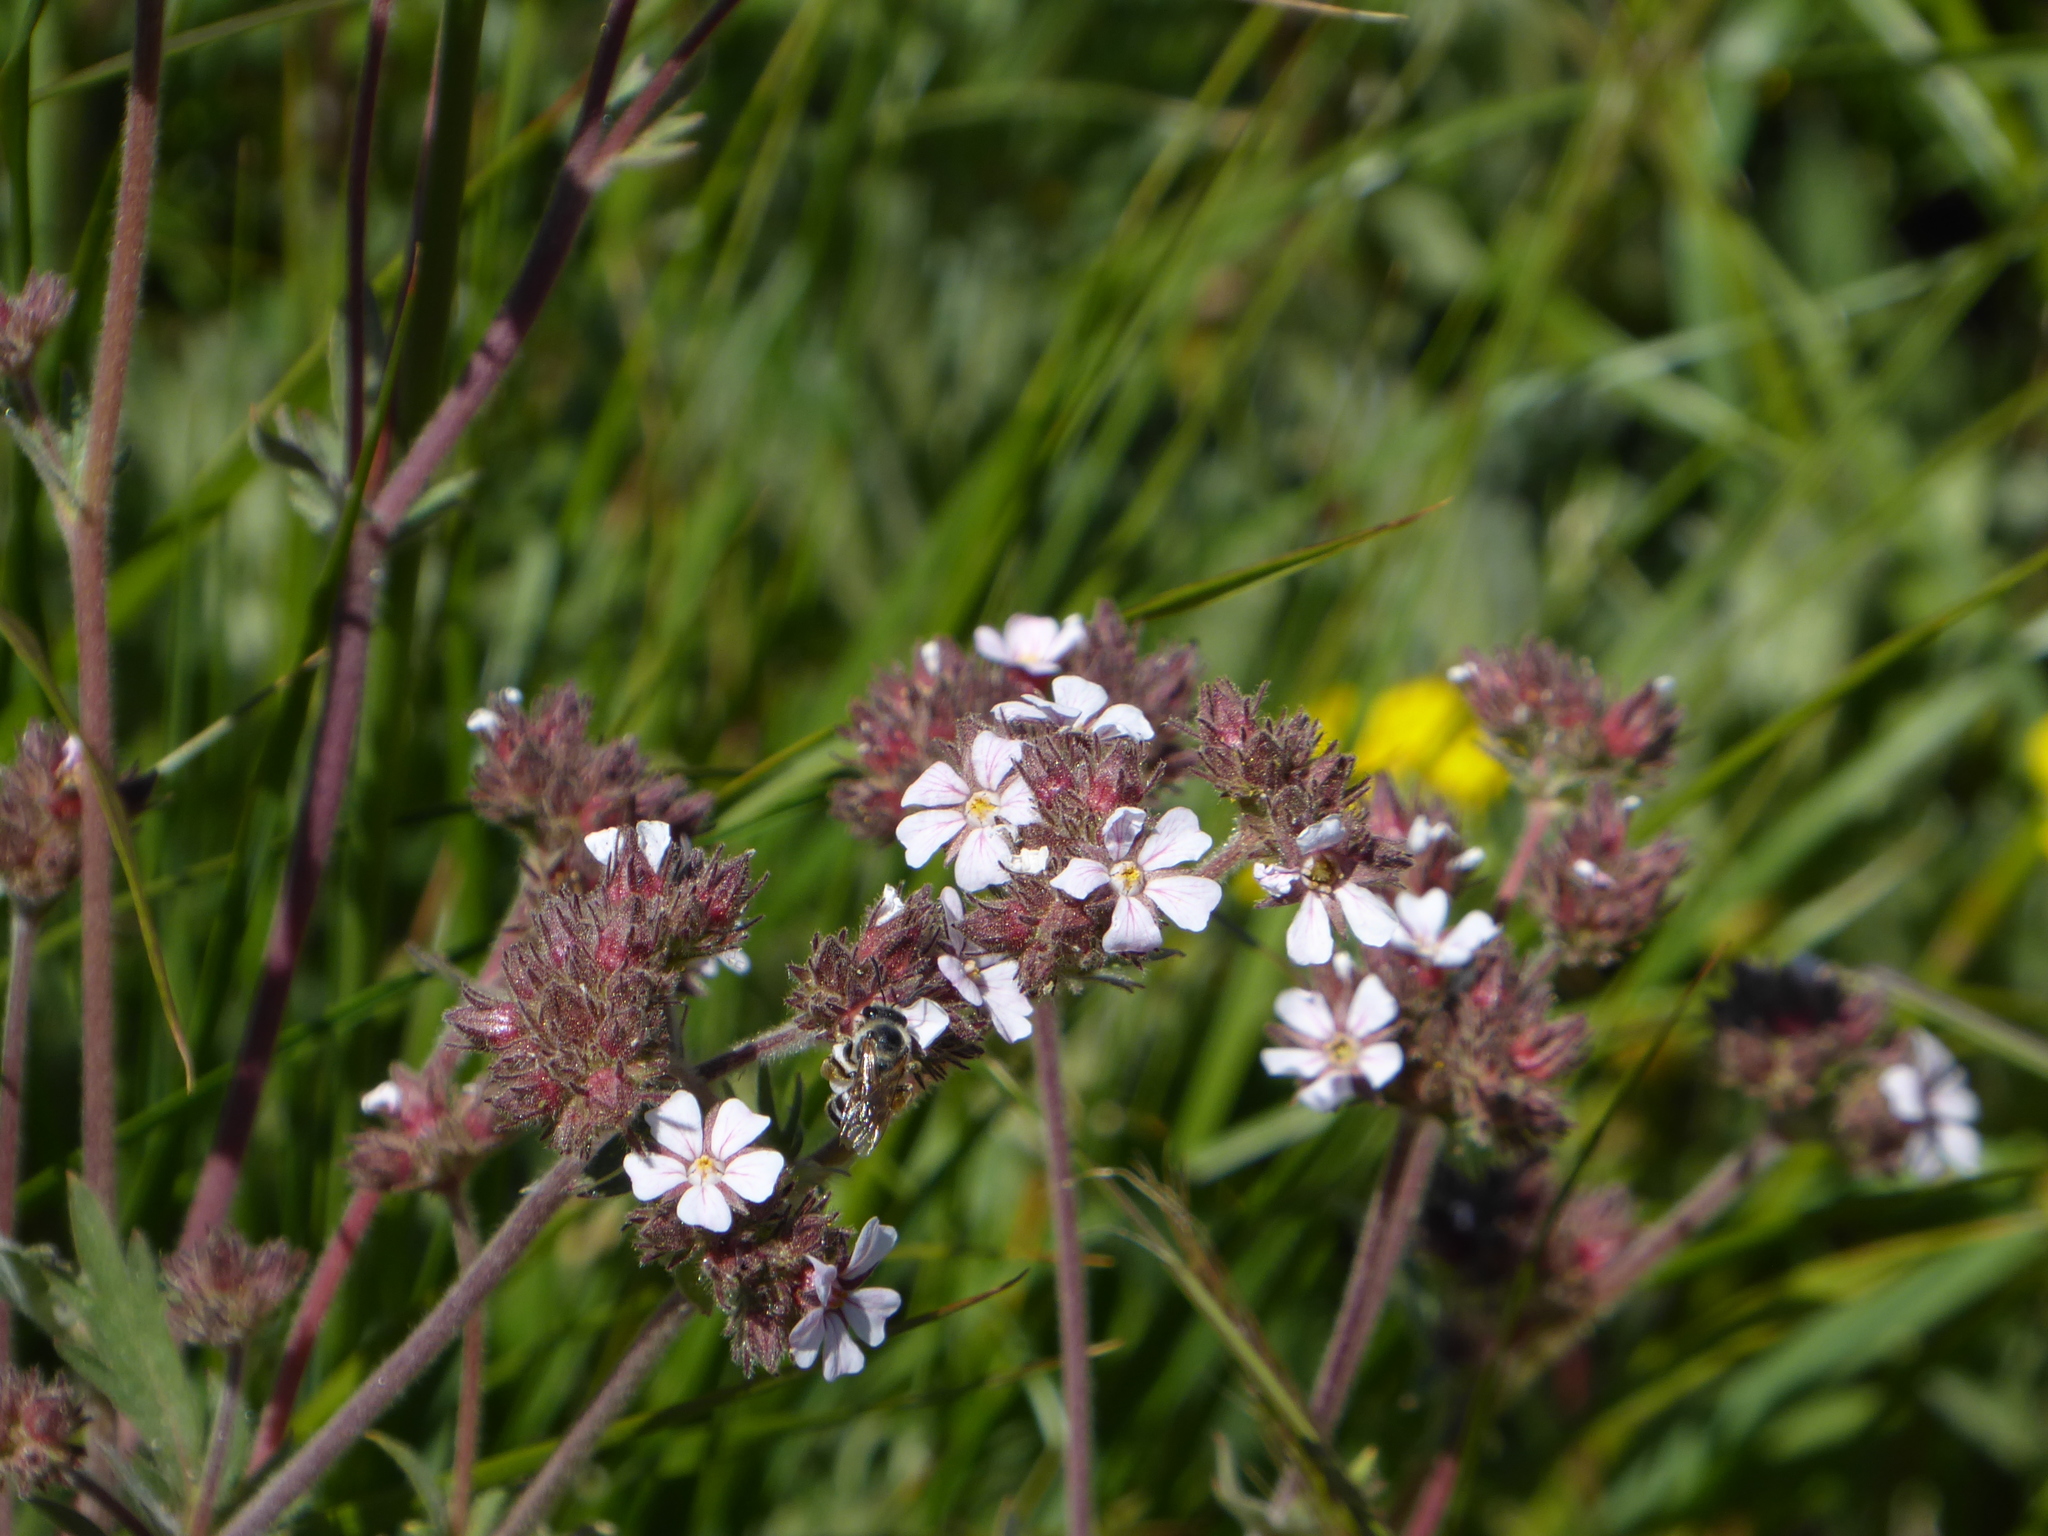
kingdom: Plantae
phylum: Tracheophyta
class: Magnoliopsida
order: Rosales
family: Rosaceae
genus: Potentilla
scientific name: Potentilla douglasii
